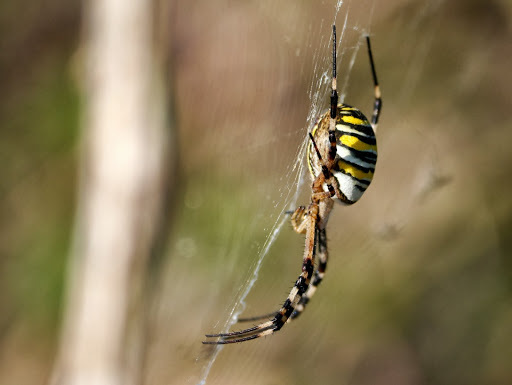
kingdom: Animalia
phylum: Arthropoda
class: Arachnida
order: Araneae
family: Araneidae
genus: Argiope
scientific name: Argiope bruennichi
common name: Wasp spider
